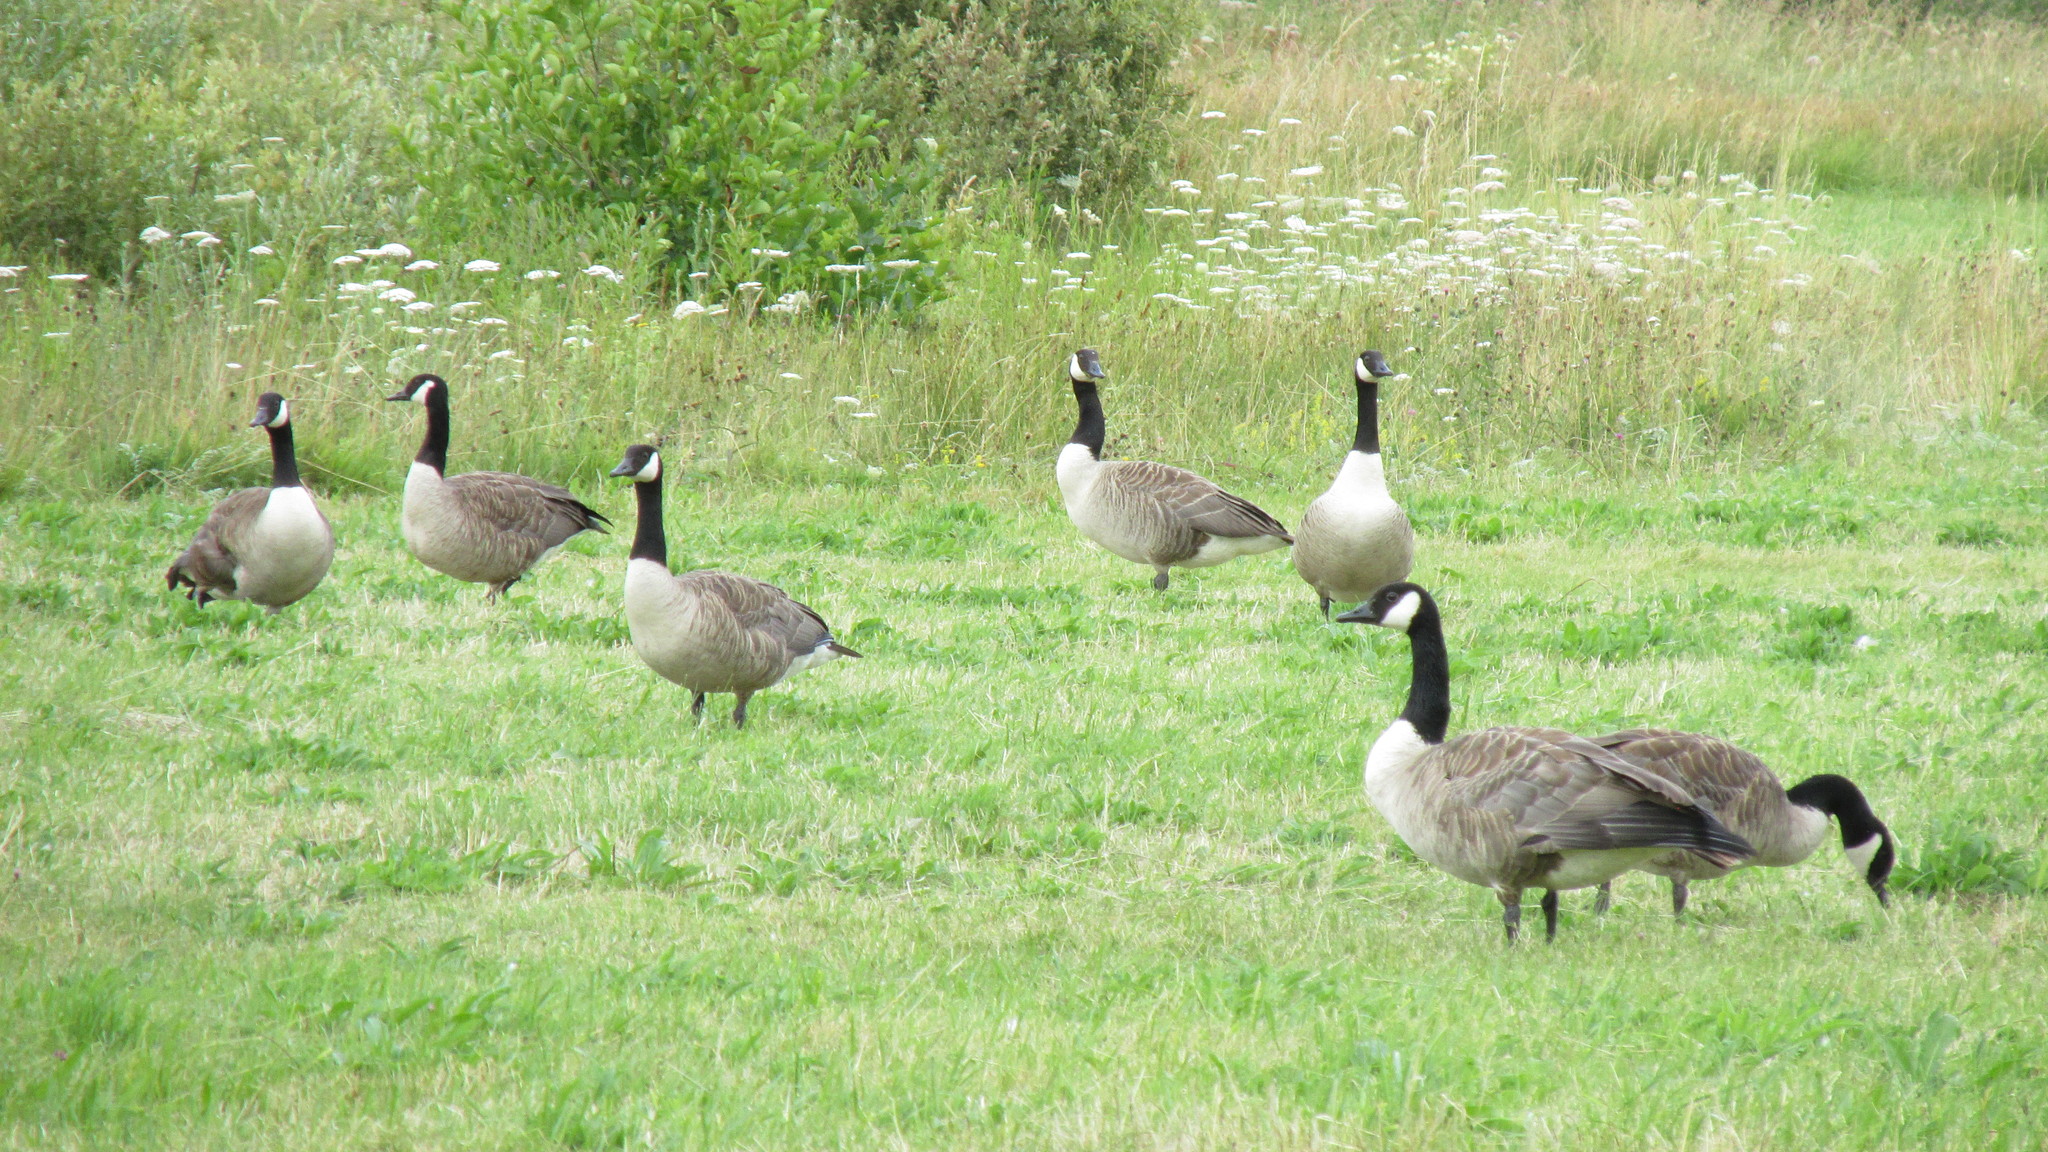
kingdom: Animalia
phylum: Chordata
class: Aves
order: Anseriformes
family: Anatidae
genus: Branta
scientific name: Branta canadensis
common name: Canada goose
